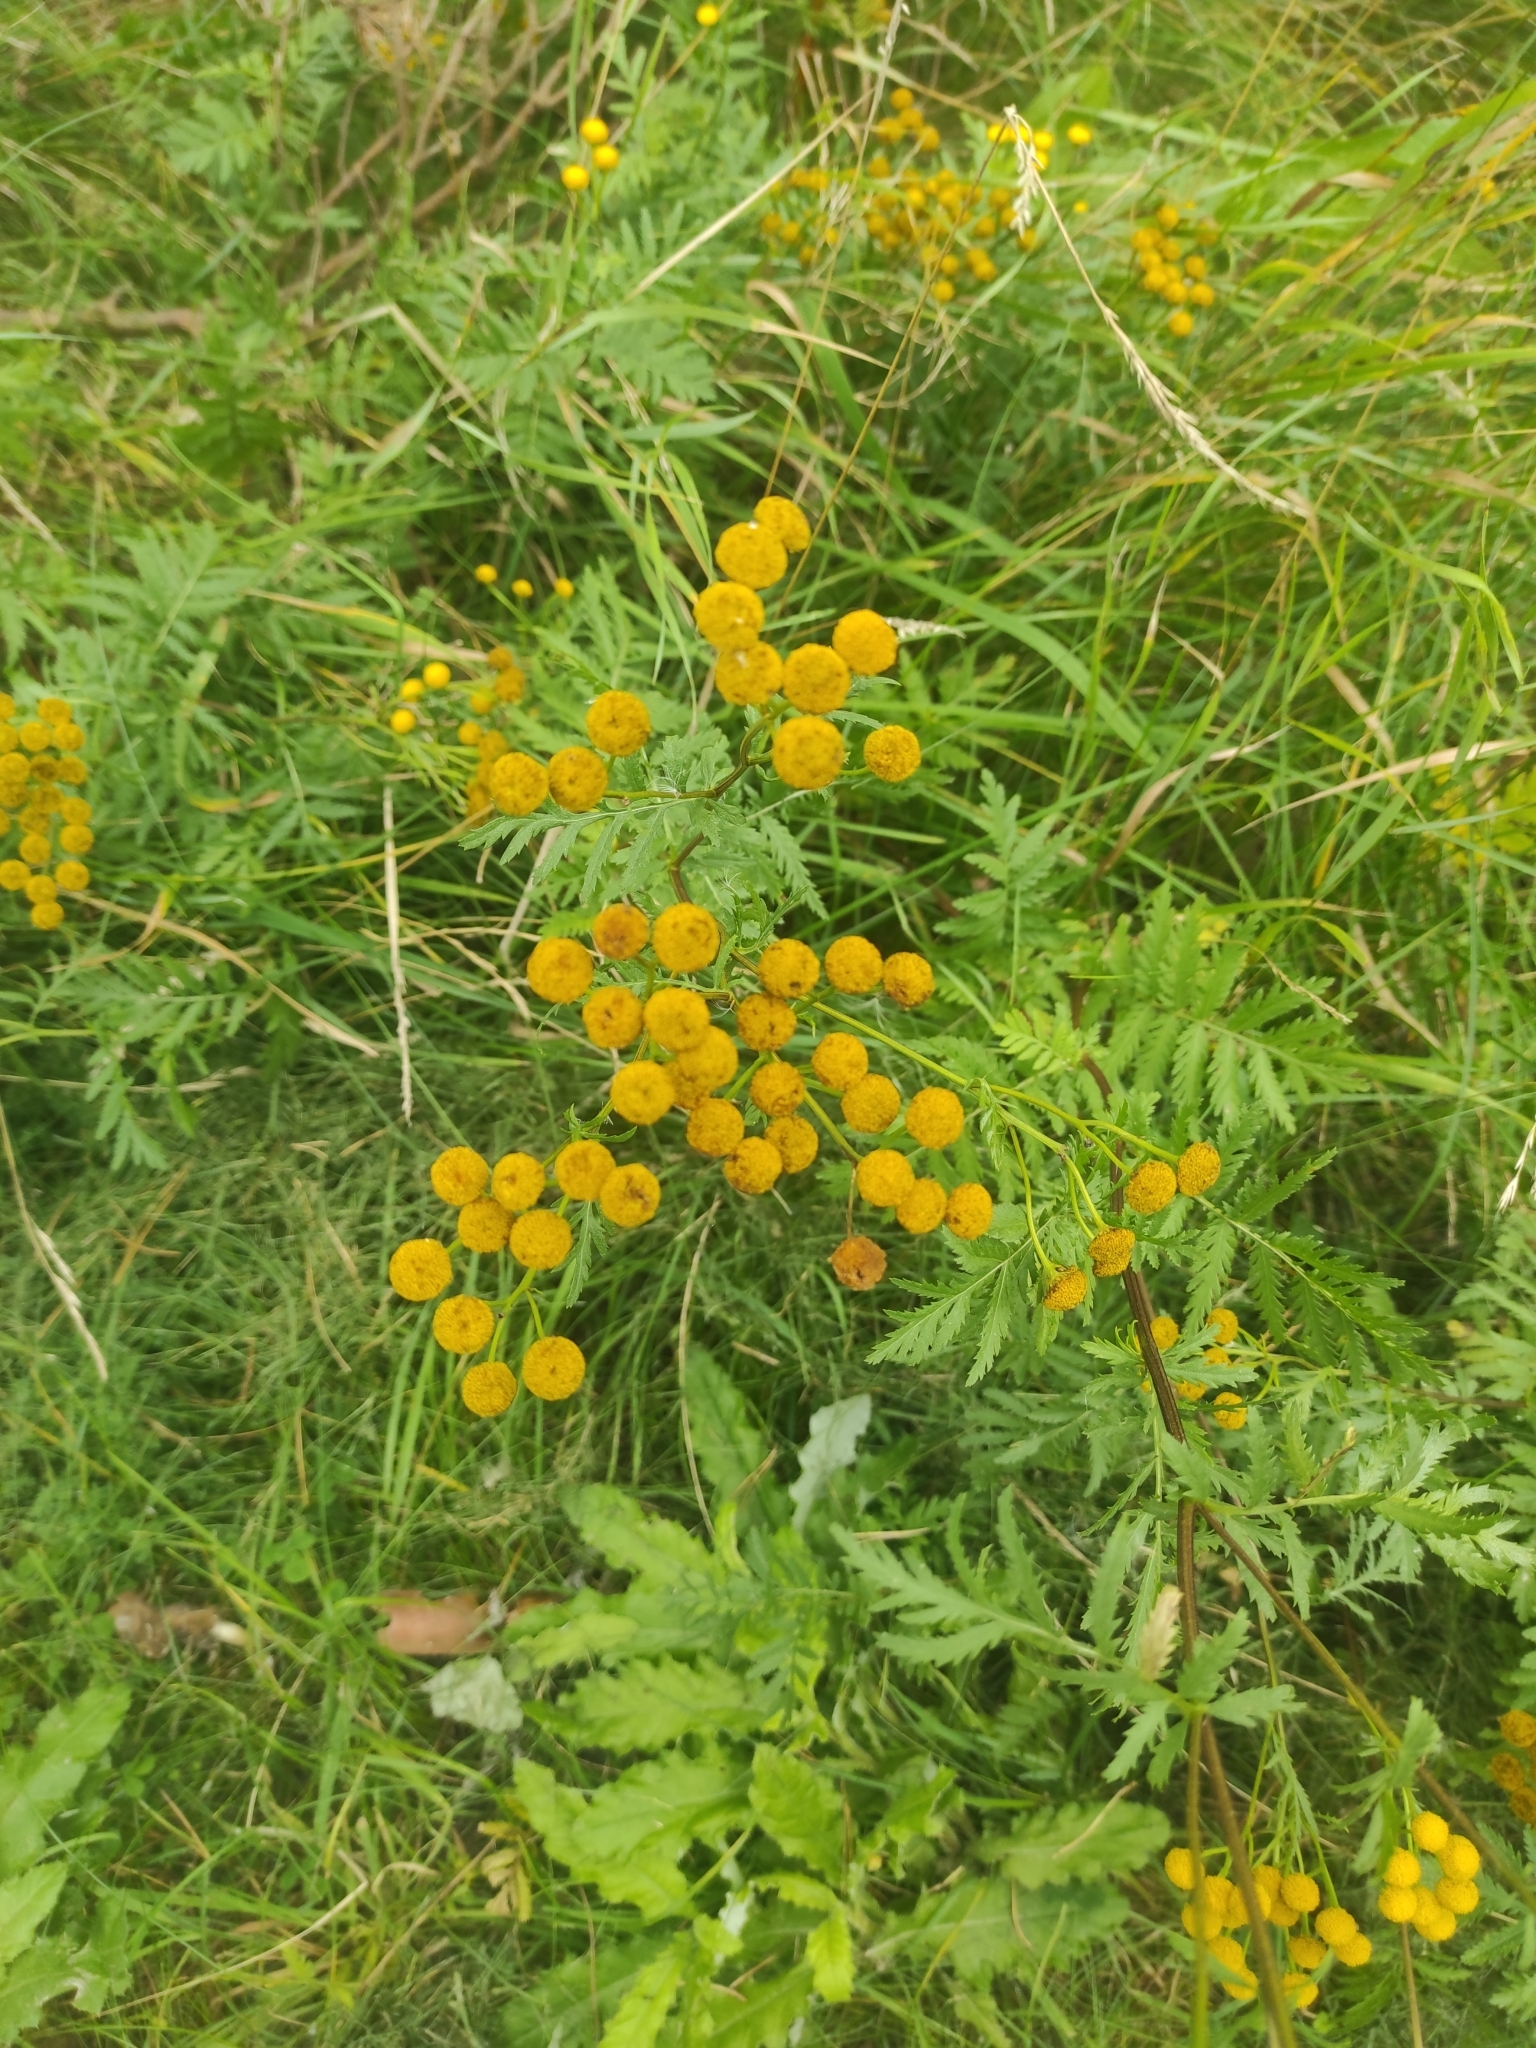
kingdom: Plantae
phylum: Tracheophyta
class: Magnoliopsida
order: Asterales
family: Asteraceae
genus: Tanacetum
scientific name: Tanacetum vulgare
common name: Common tansy
